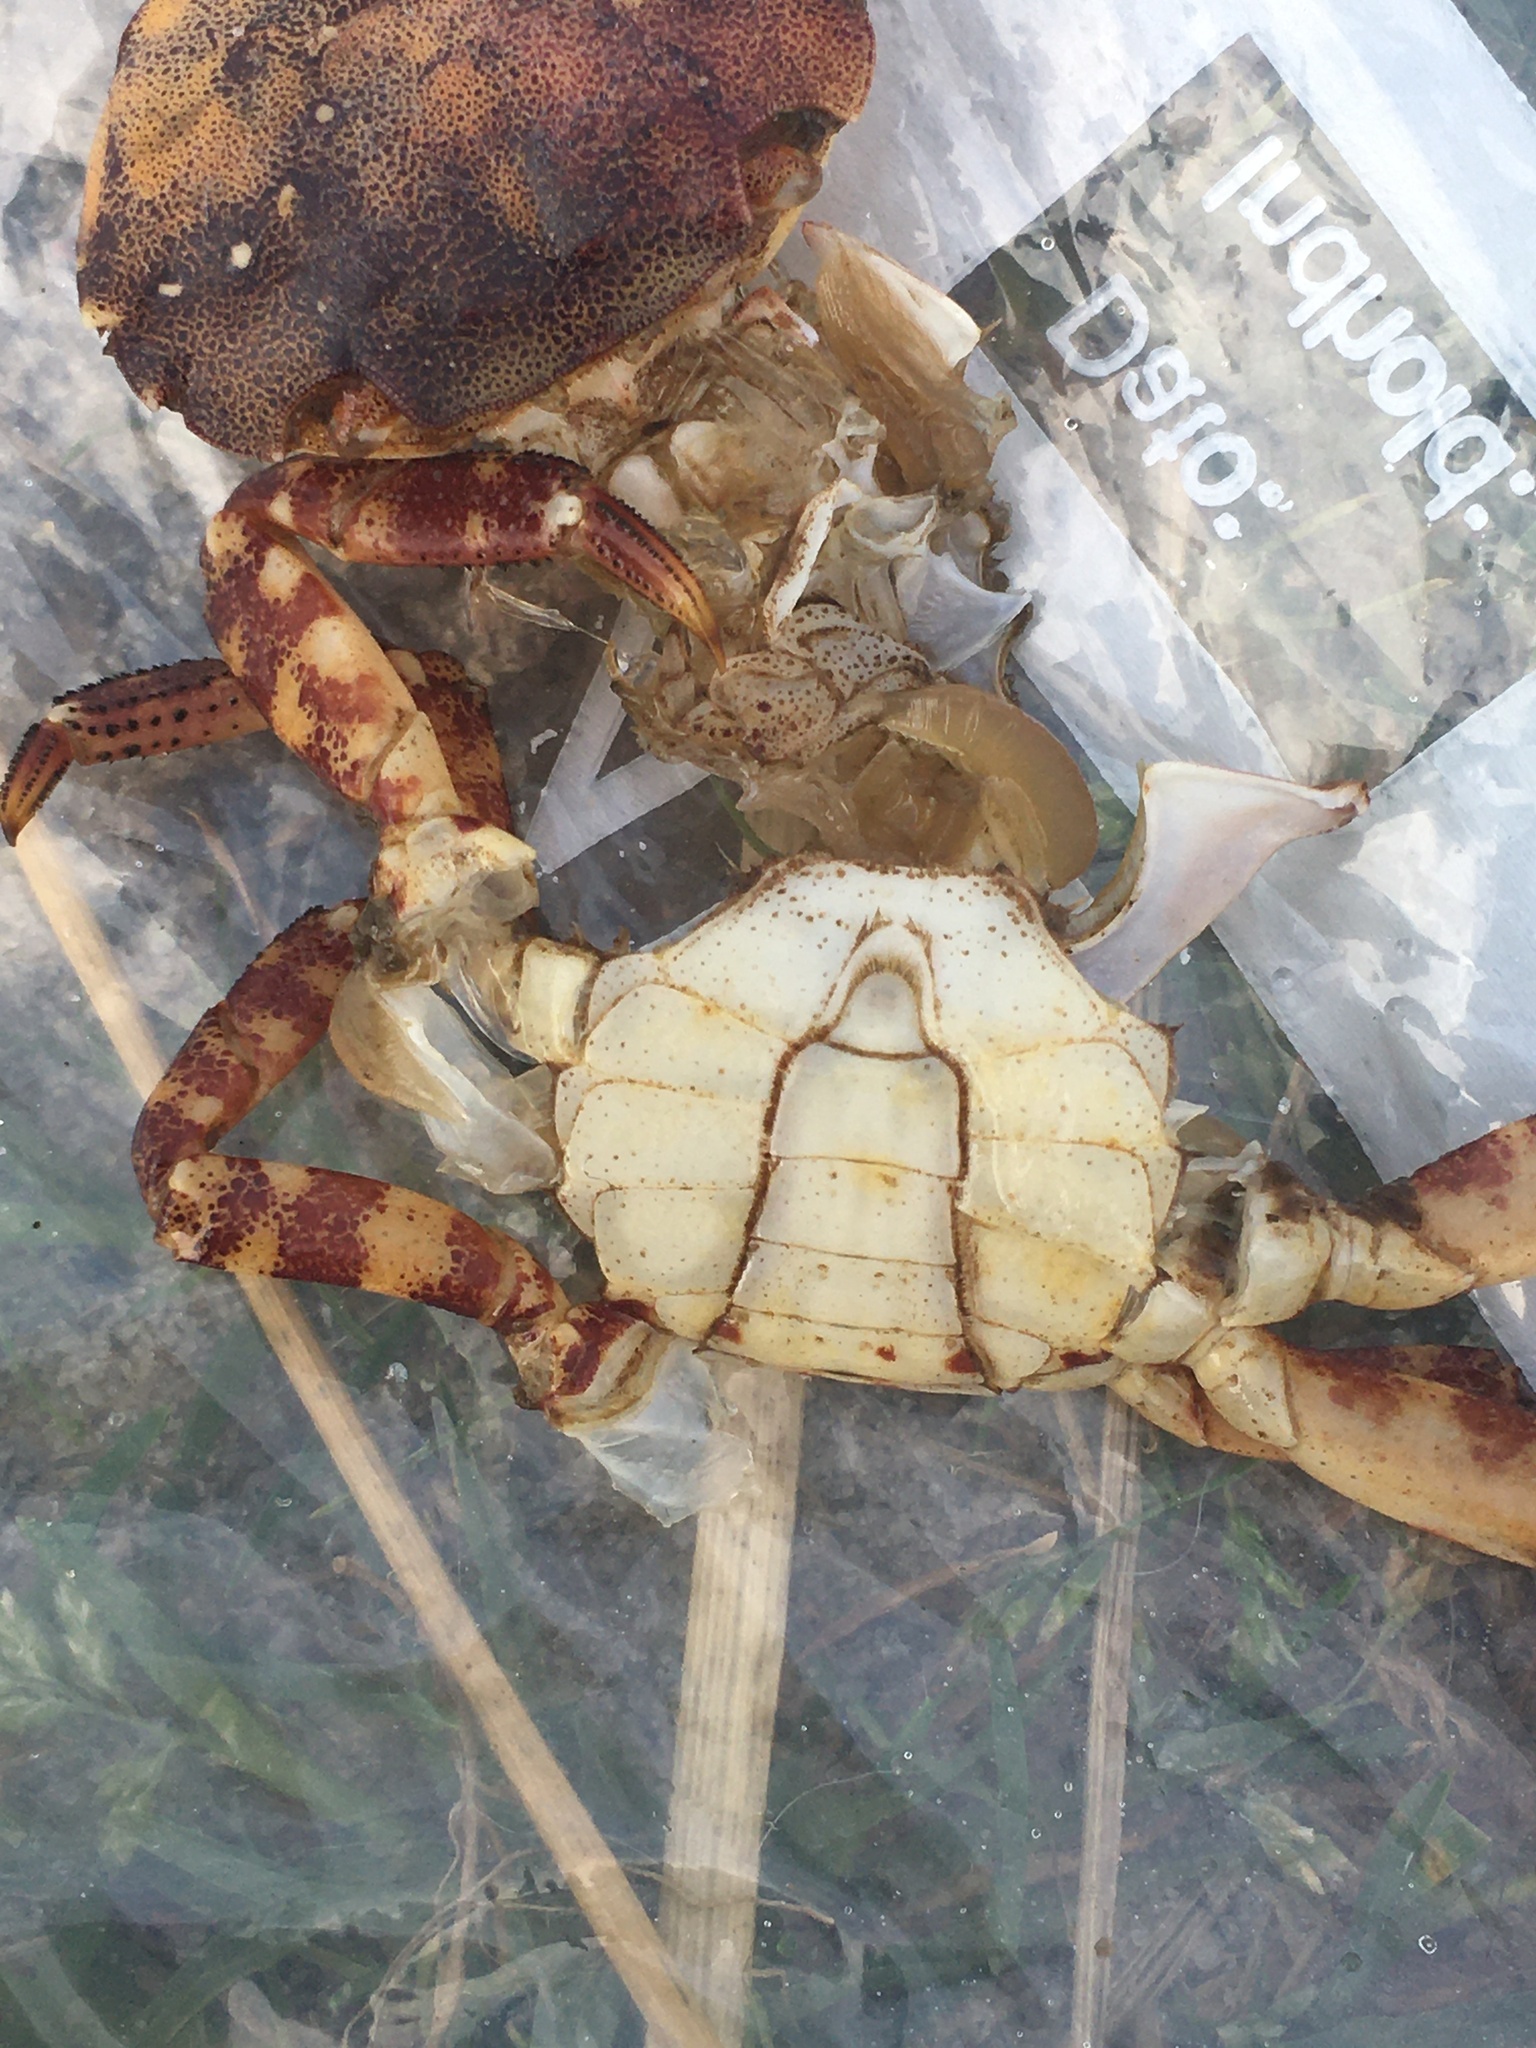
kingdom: Animalia
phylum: Arthropoda
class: Malacostraca
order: Decapoda
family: Varunidae
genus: Hemigrapsus
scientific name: Hemigrapsus sanguineus
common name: Asian shore crab
